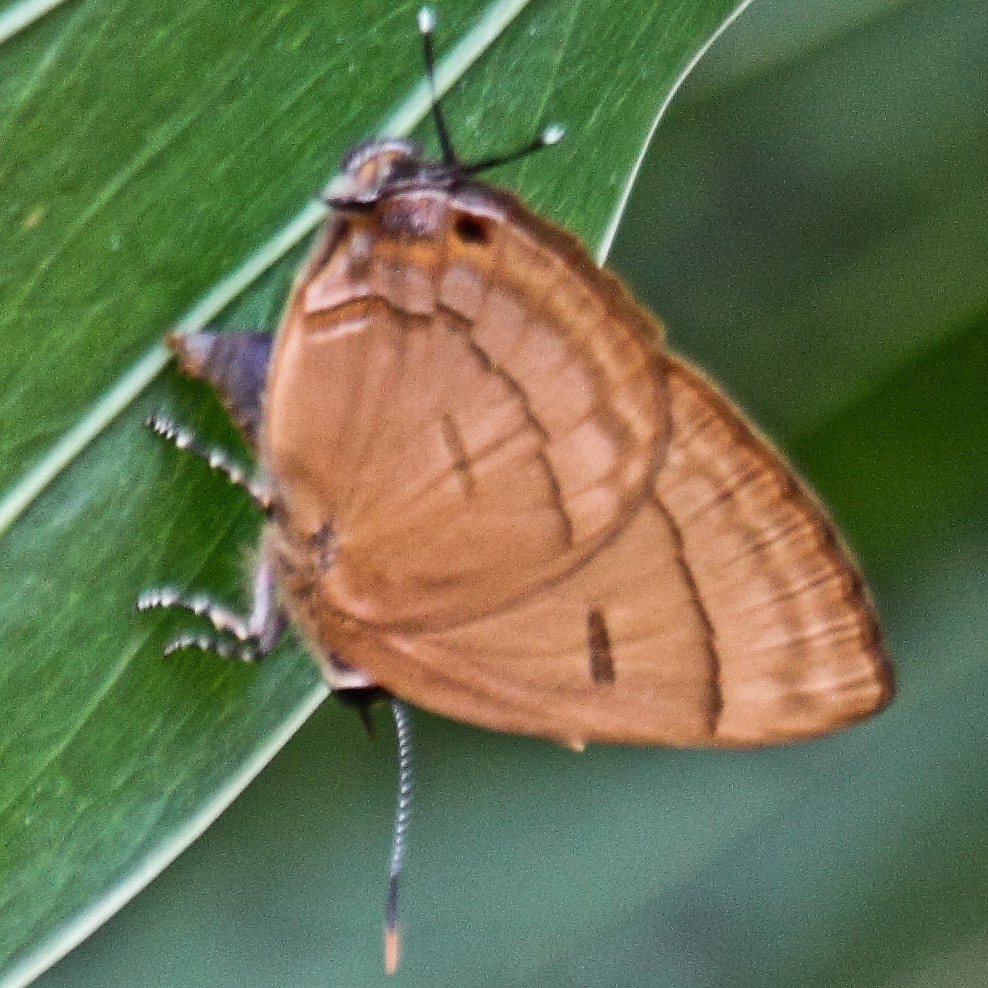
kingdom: Animalia
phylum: Arthropoda
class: Insecta
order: Lepidoptera
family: Lycaenidae
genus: Rapala
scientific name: Rapala pheretima
